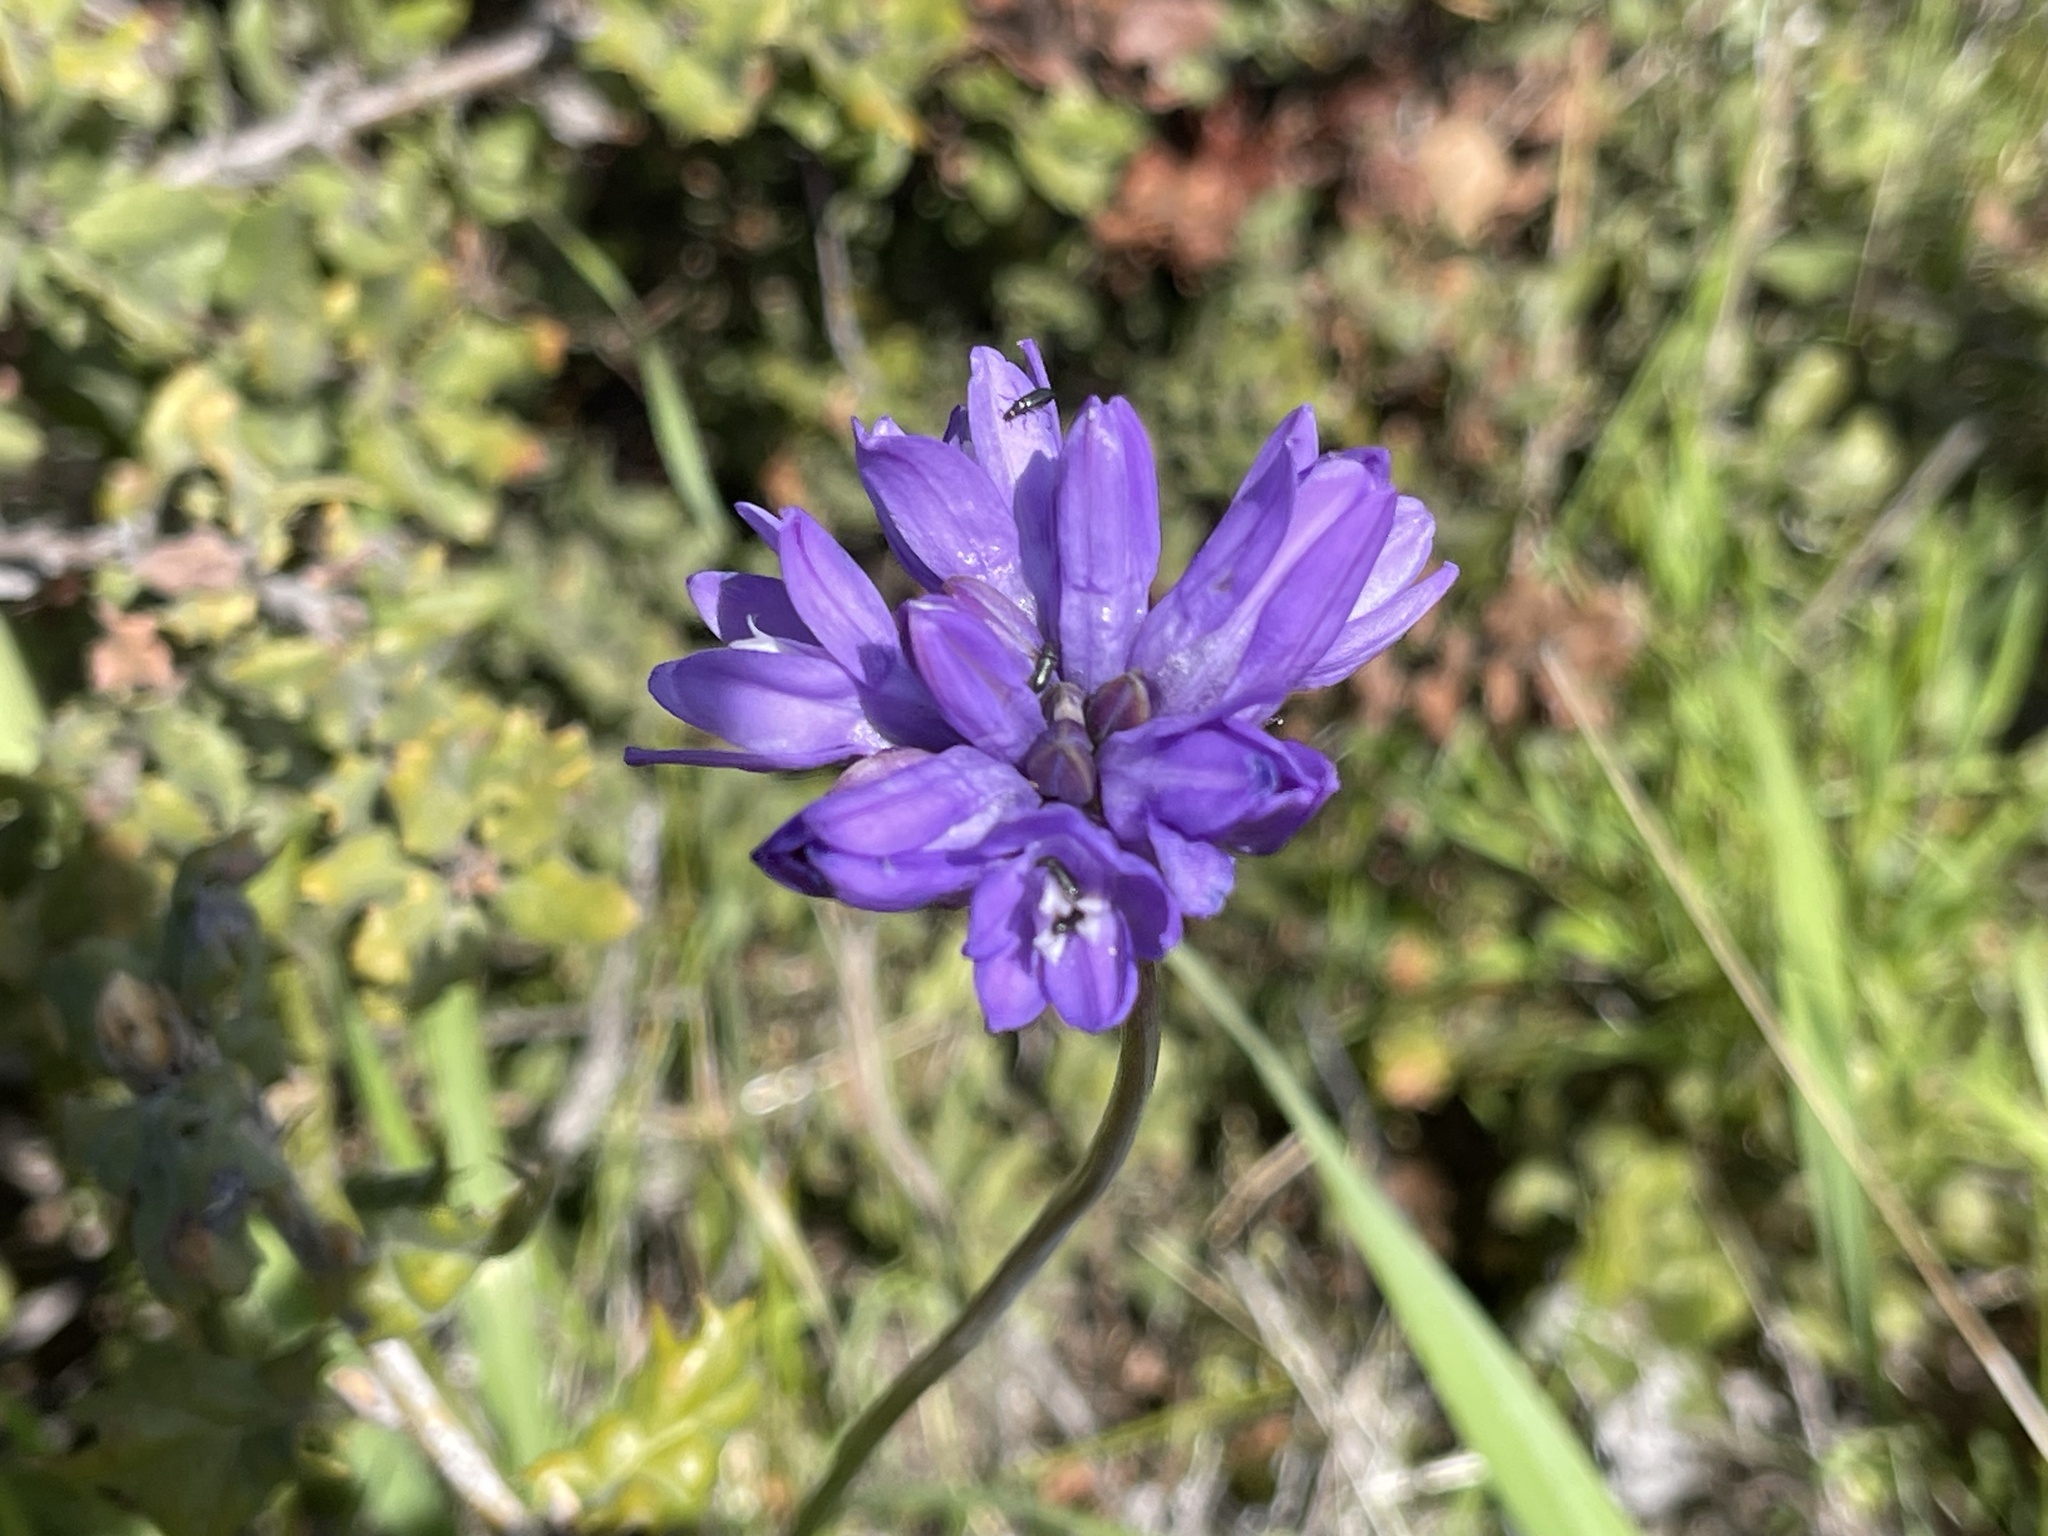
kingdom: Plantae
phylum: Tracheophyta
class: Liliopsida
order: Asparagales
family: Asparagaceae
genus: Dipterostemon
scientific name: Dipterostemon capitatus
